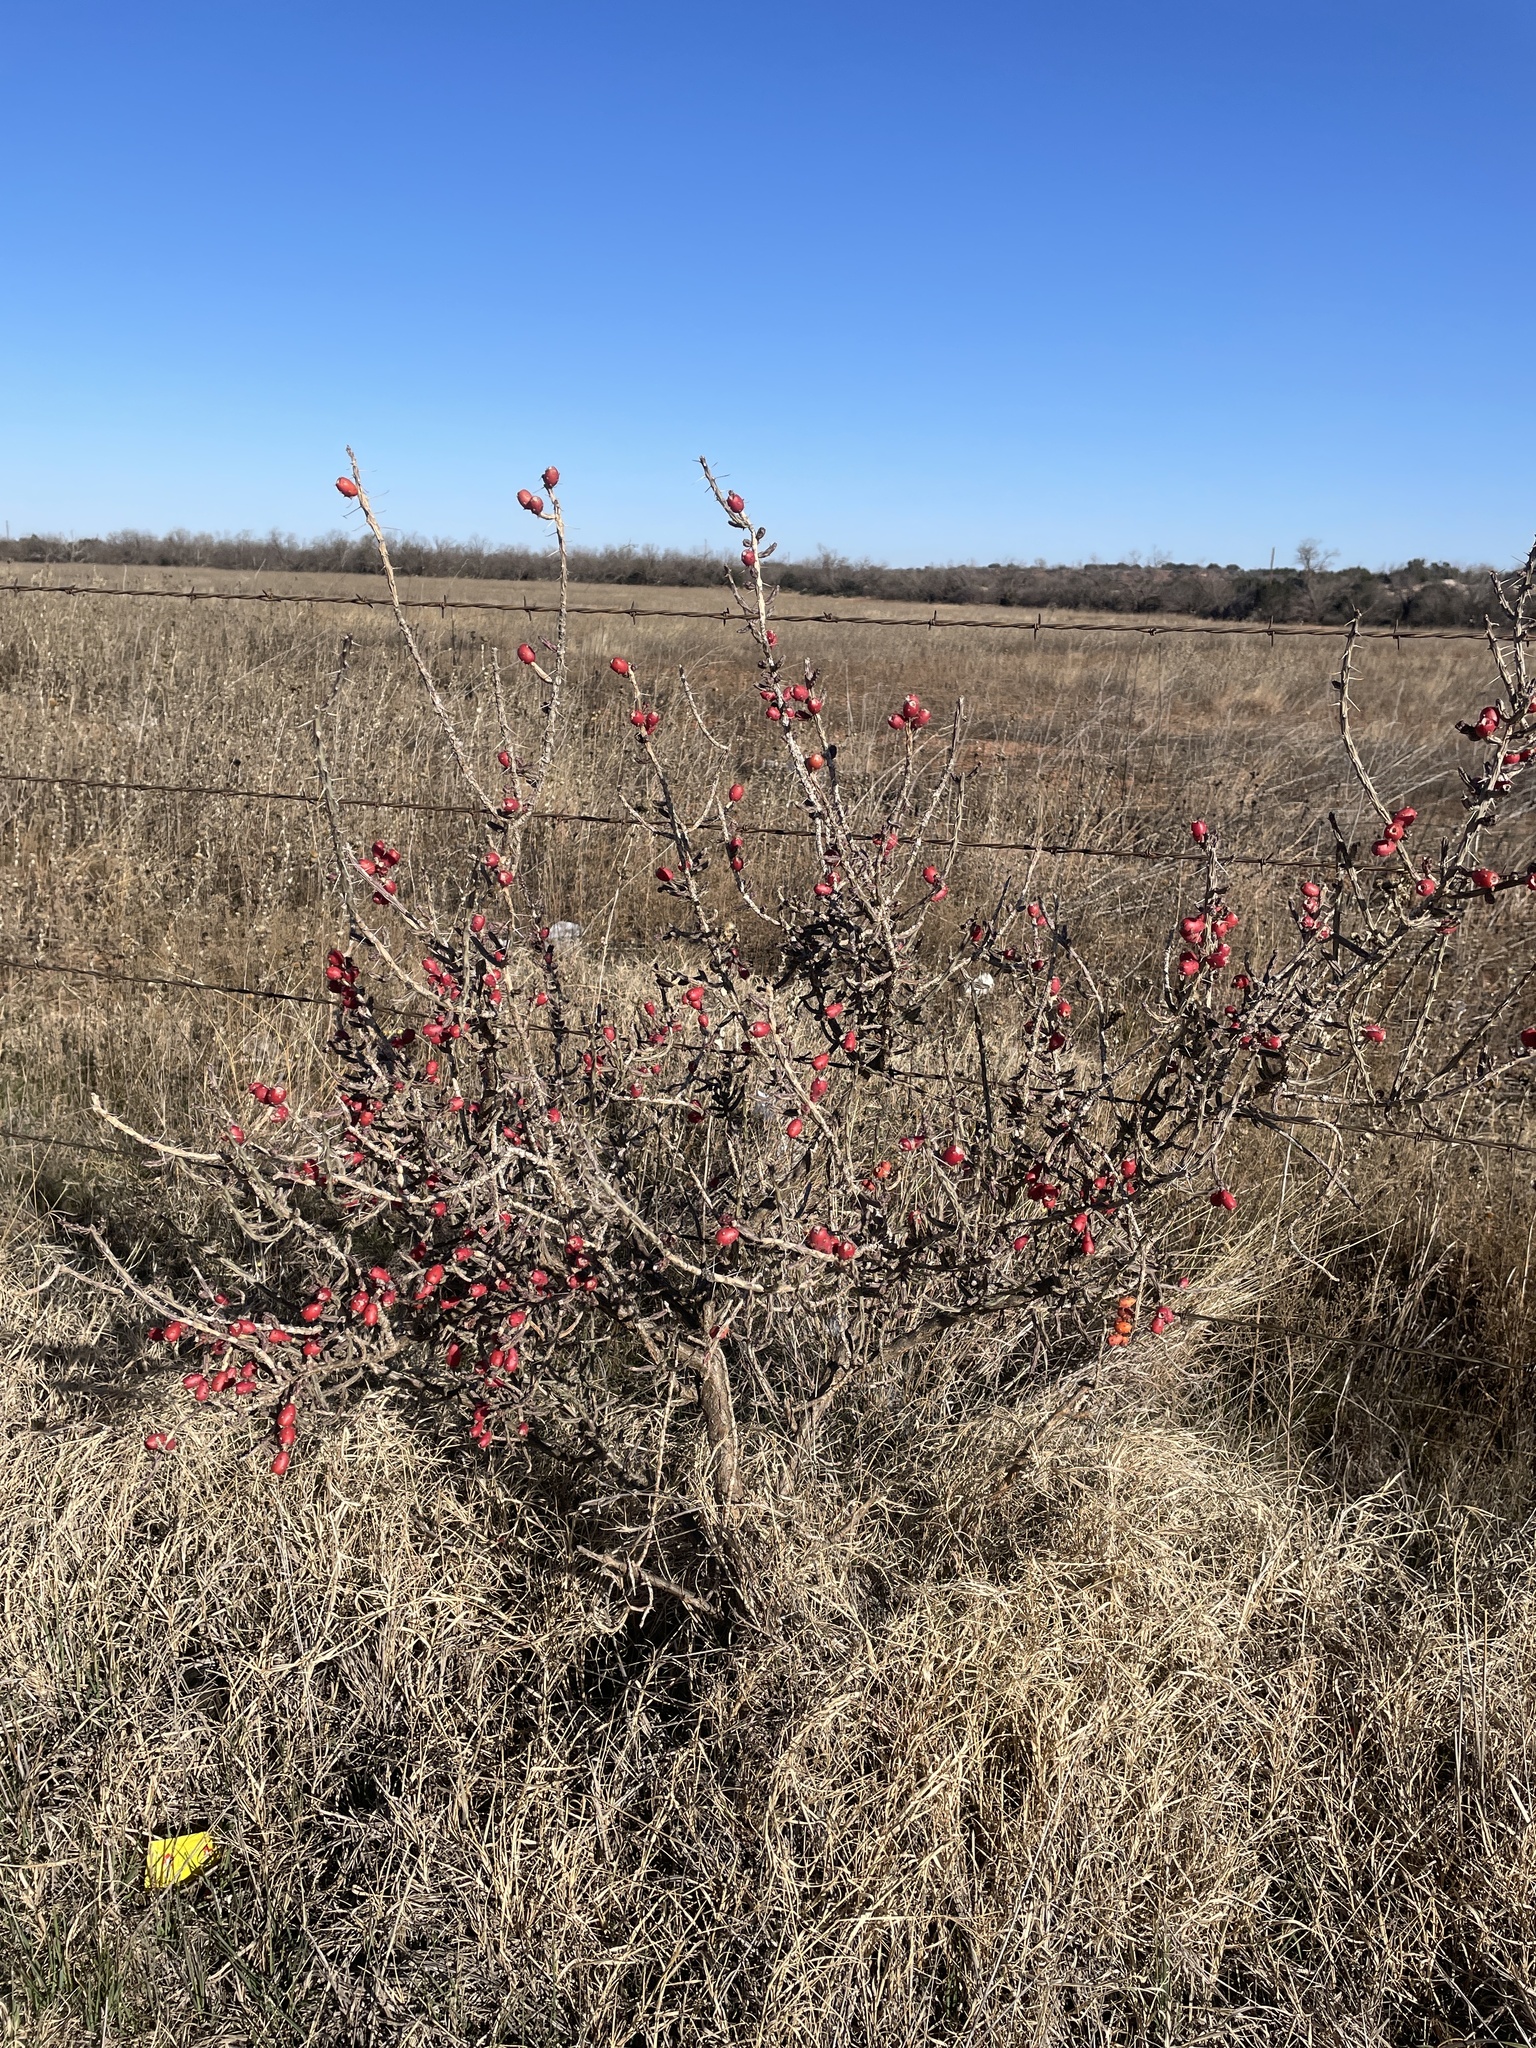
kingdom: Plantae
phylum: Tracheophyta
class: Magnoliopsida
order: Caryophyllales
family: Cactaceae
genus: Cylindropuntia
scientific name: Cylindropuntia leptocaulis
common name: Christmas cactus
